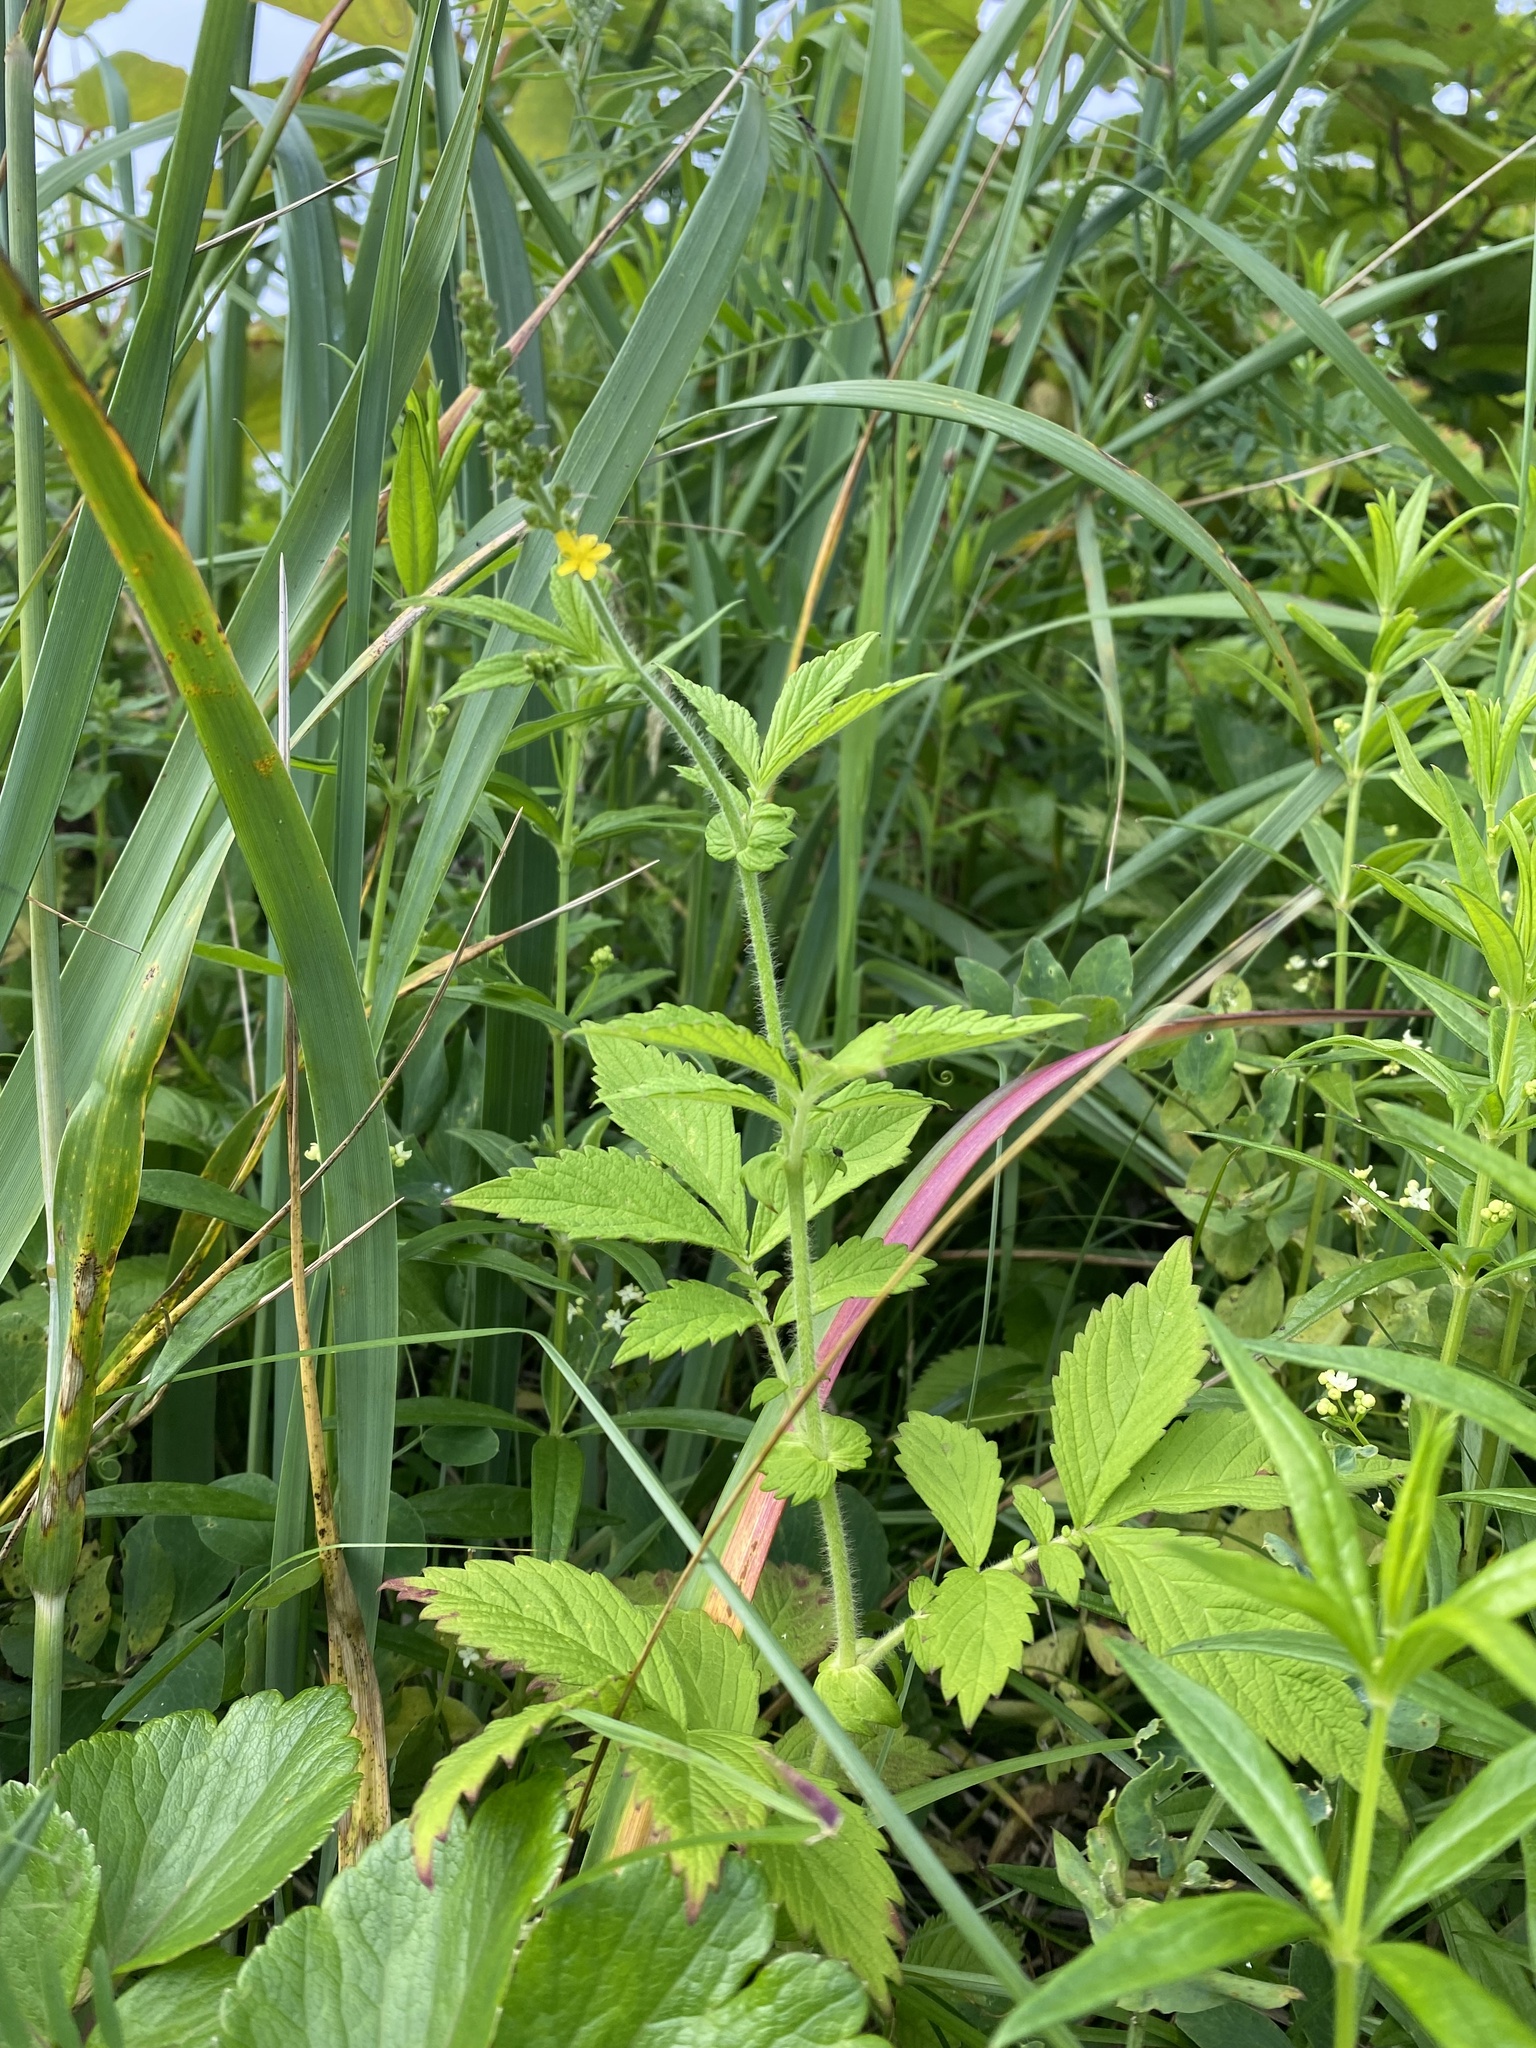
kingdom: Plantae
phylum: Tracheophyta
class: Magnoliopsida
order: Rosales
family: Rosaceae
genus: Agrimonia
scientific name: Agrimonia eupatoria
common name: Agrimony
